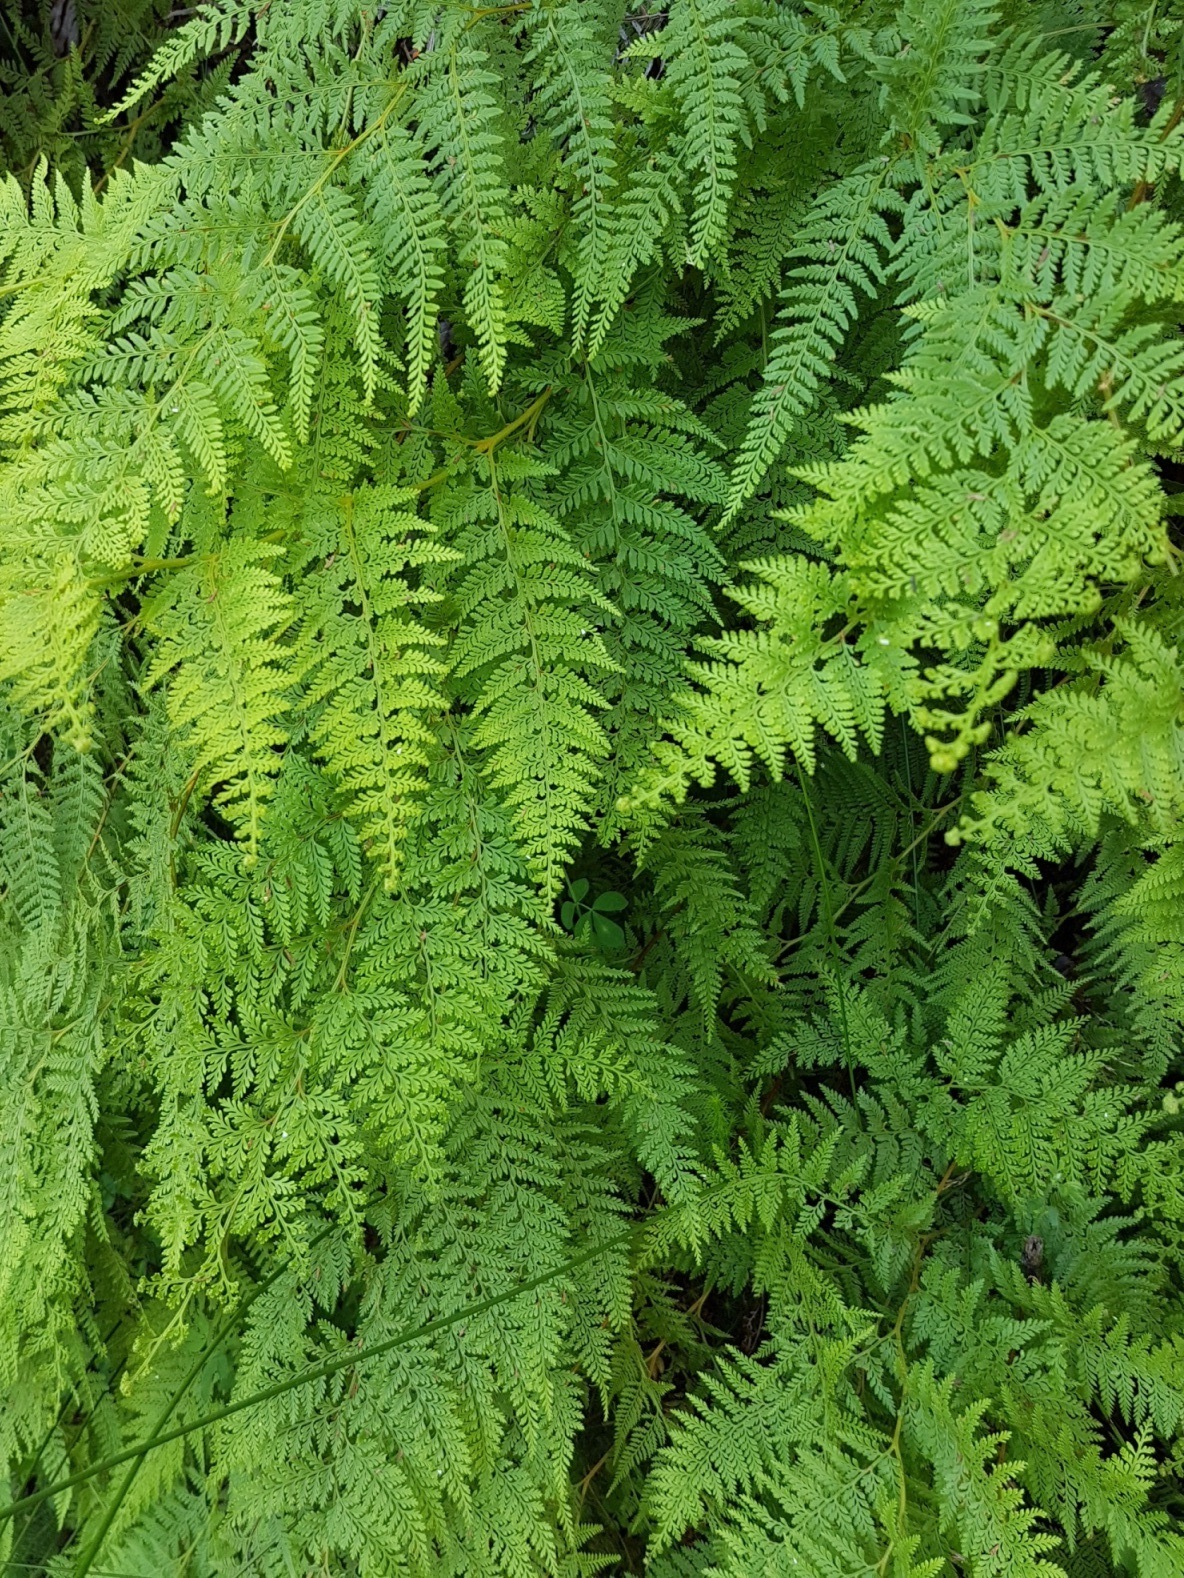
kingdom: Plantae
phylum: Tracheophyta
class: Polypodiopsida
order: Polypodiales
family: Dennstaedtiaceae
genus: Paesia
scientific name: Paesia scaberula
